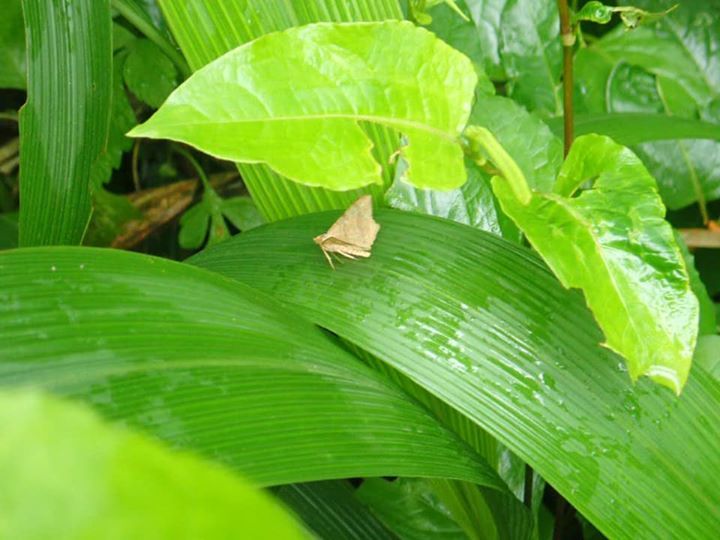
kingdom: Animalia
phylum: Arthropoda
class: Insecta
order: Lepidoptera
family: Geometridae
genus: Chiasmia
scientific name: Chiasmia emersaria
